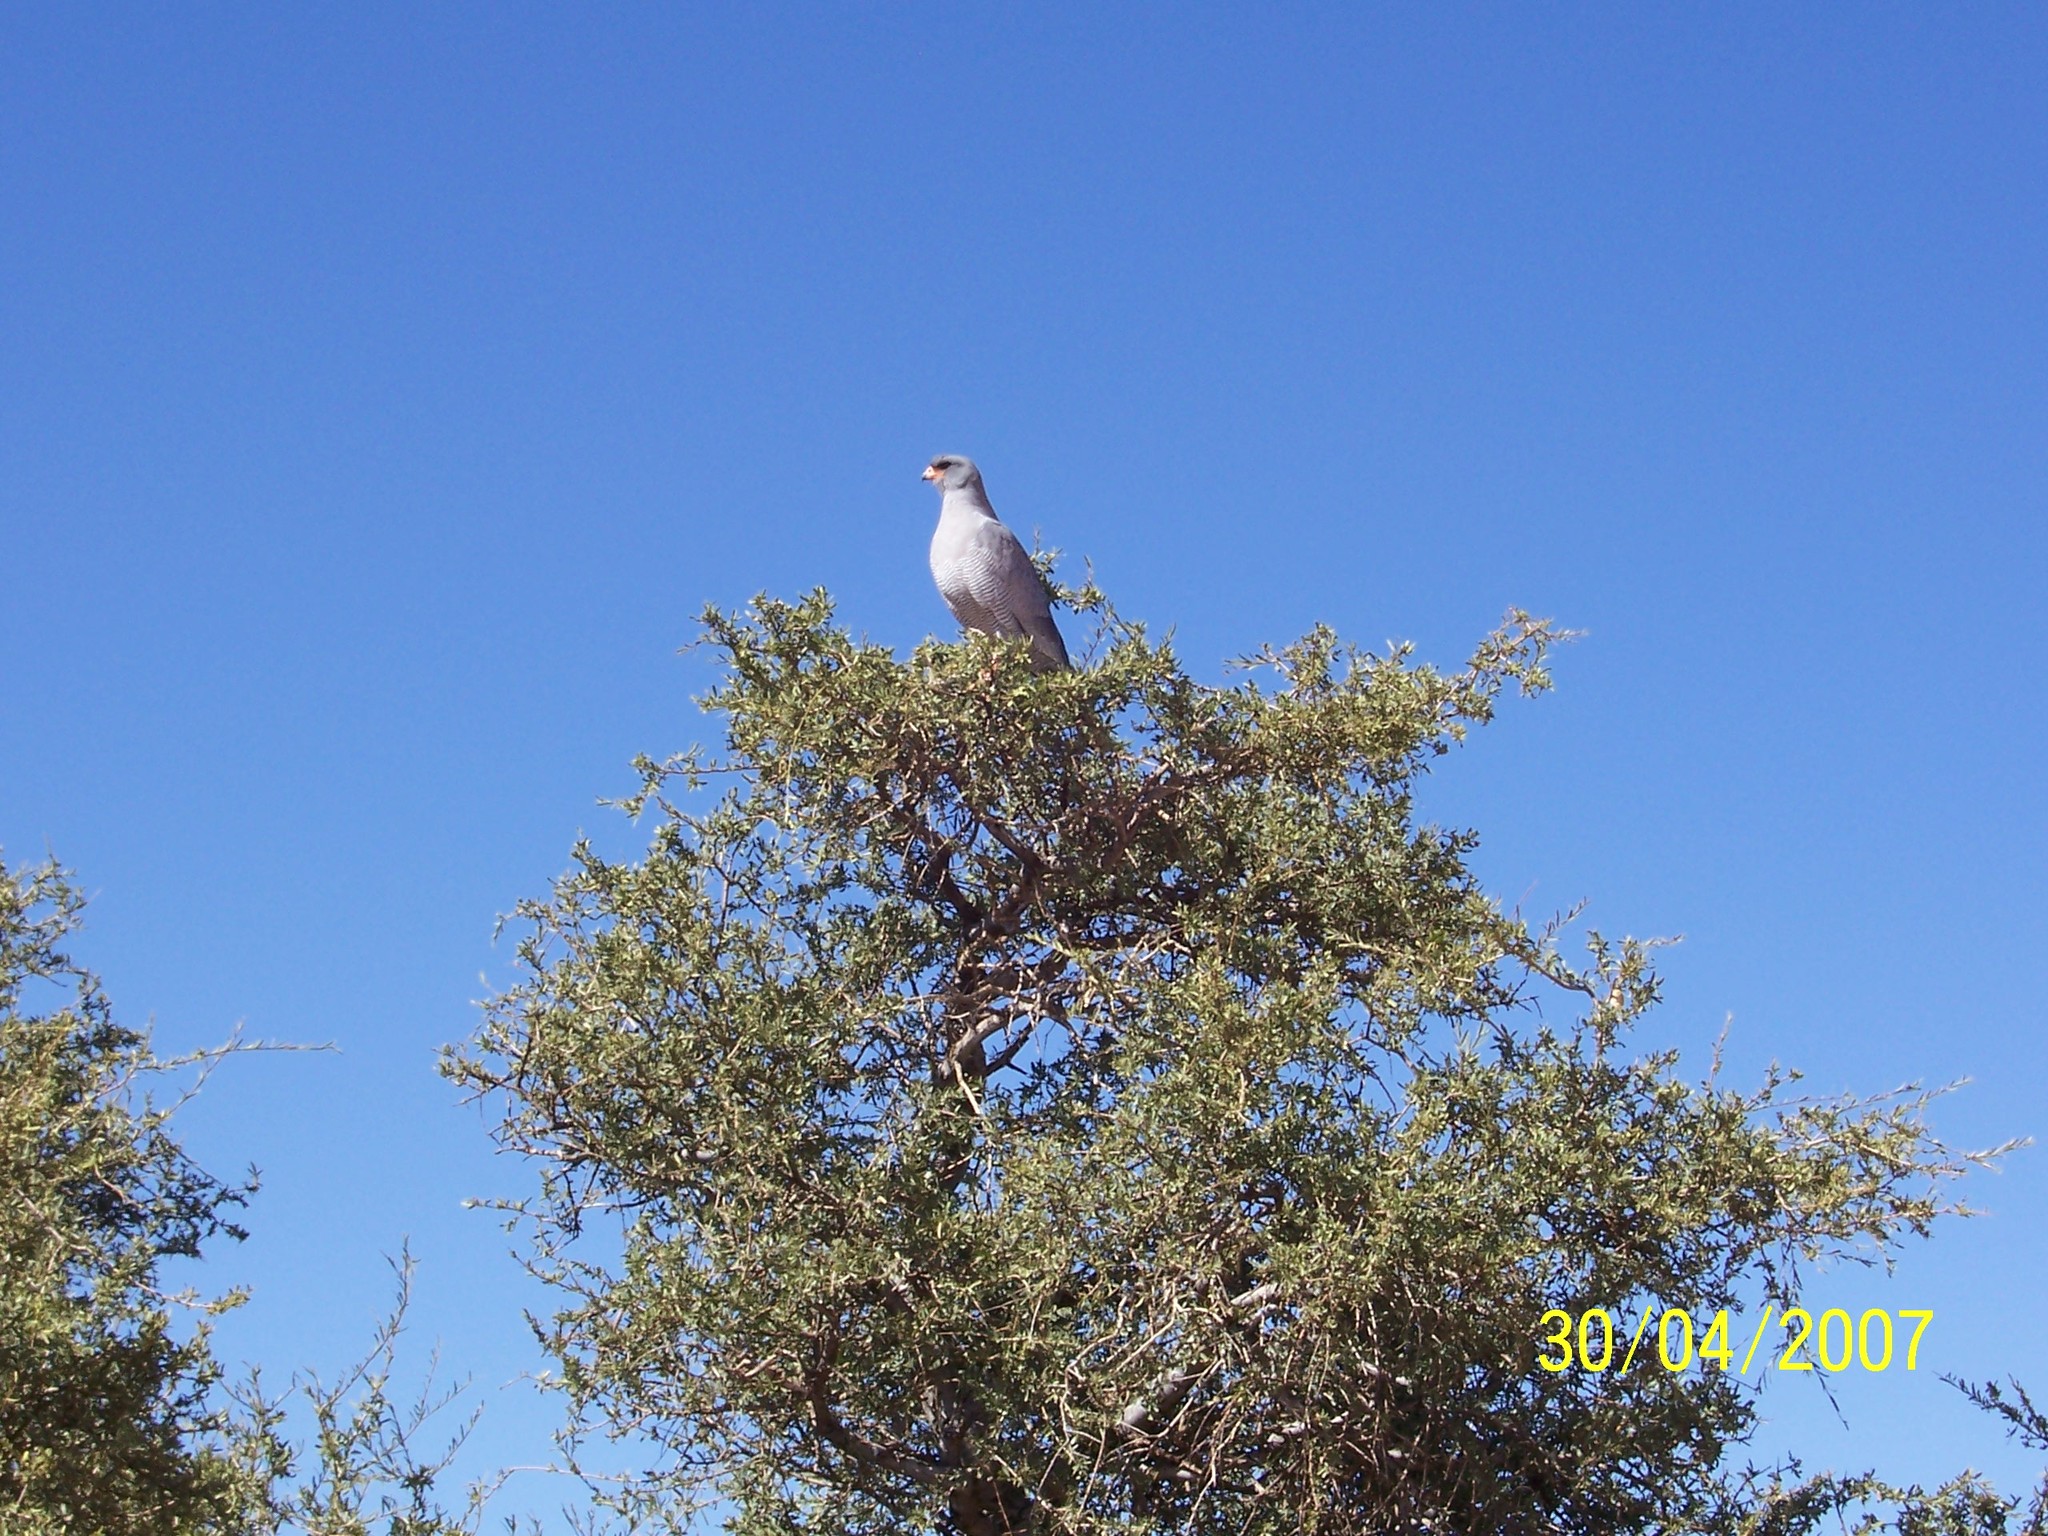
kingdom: Animalia
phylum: Chordata
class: Aves
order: Accipitriformes
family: Accipitridae
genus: Melierax
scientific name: Melierax canorus
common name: Pale chanting-goshawk
